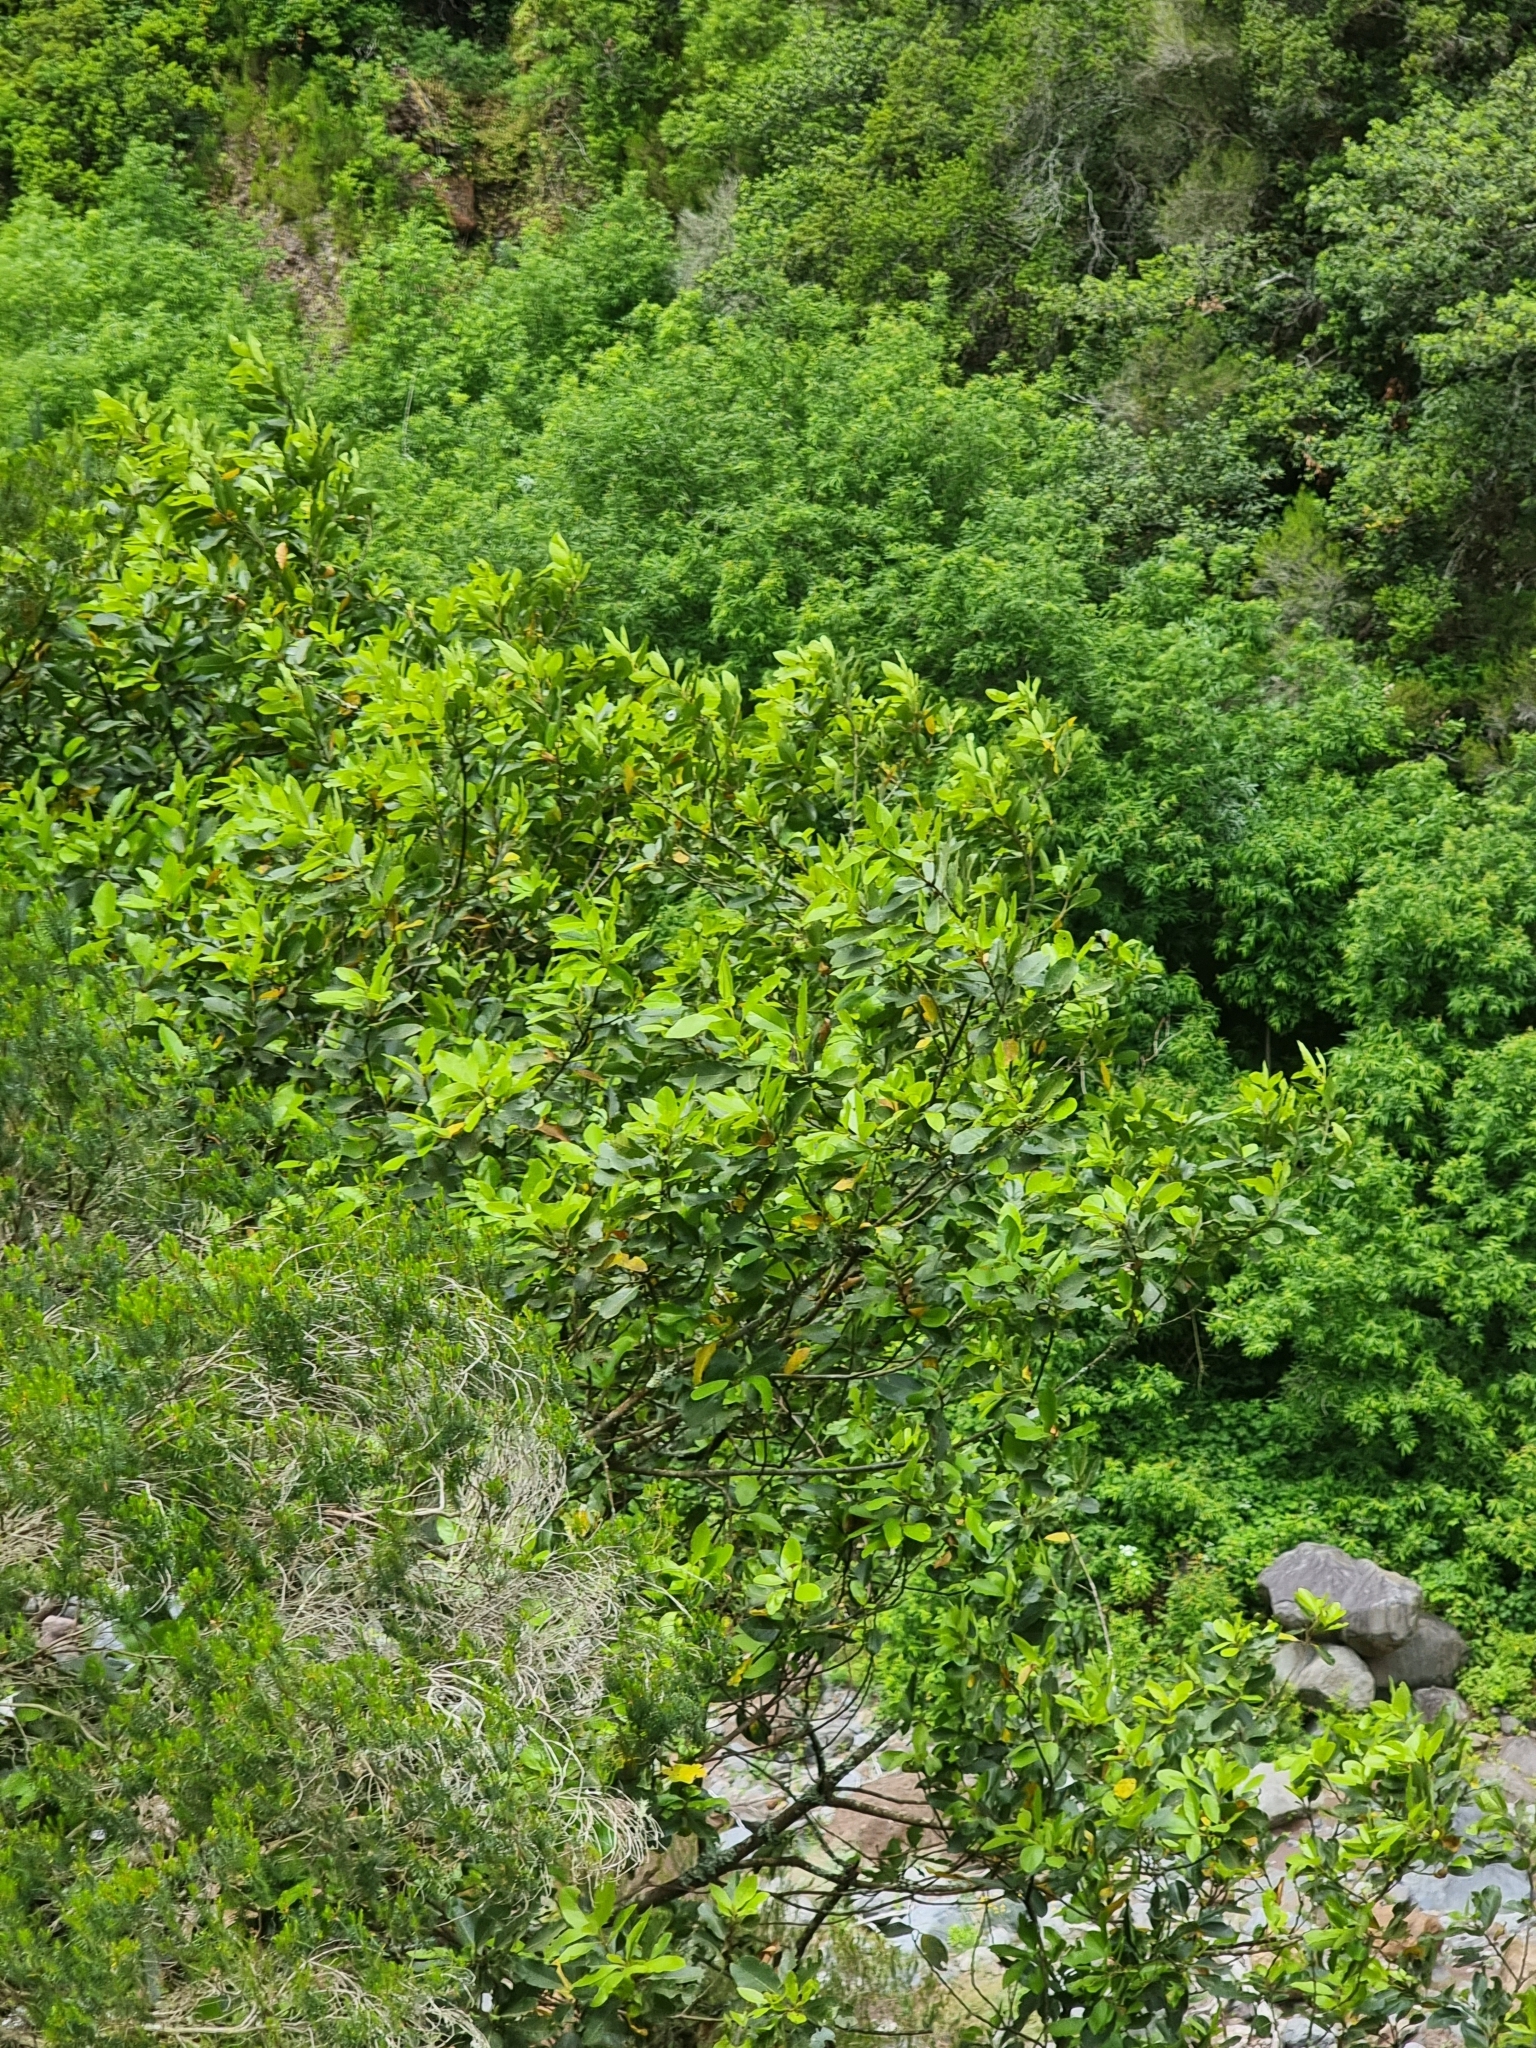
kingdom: Plantae
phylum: Tracheophyta
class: Magnoliopsida
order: Laurales
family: Lauraceae
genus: Laurus
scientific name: Laurus novocanariensis
